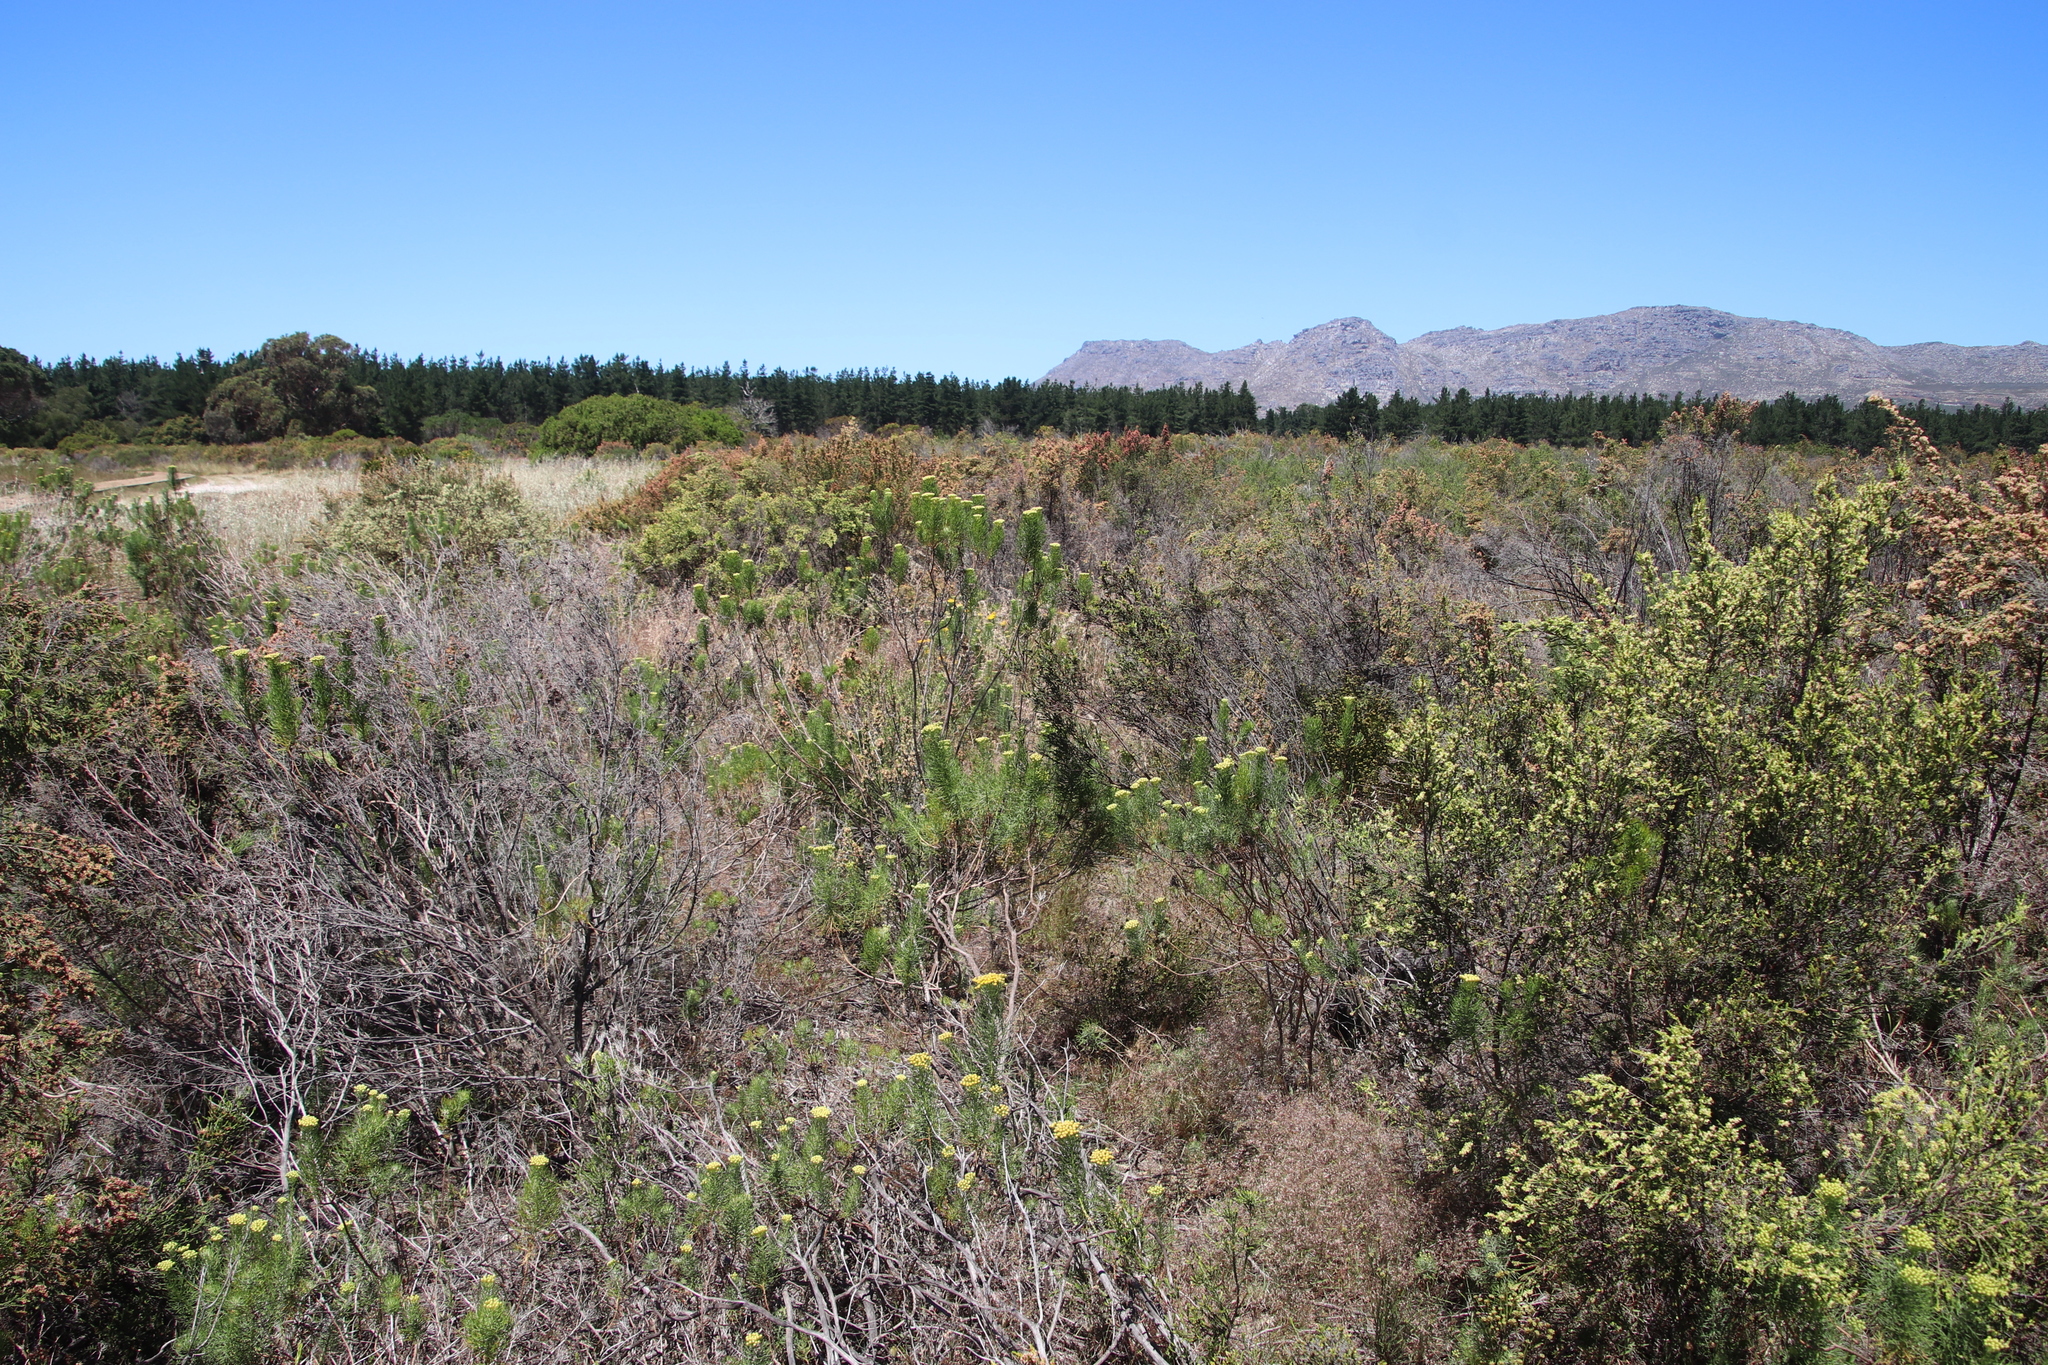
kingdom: Plantae
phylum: Tracheophyta
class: Magnoliopsida
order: Asterales
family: Asteraceae
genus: Athanasia
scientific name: Athanasia crithmifolia
